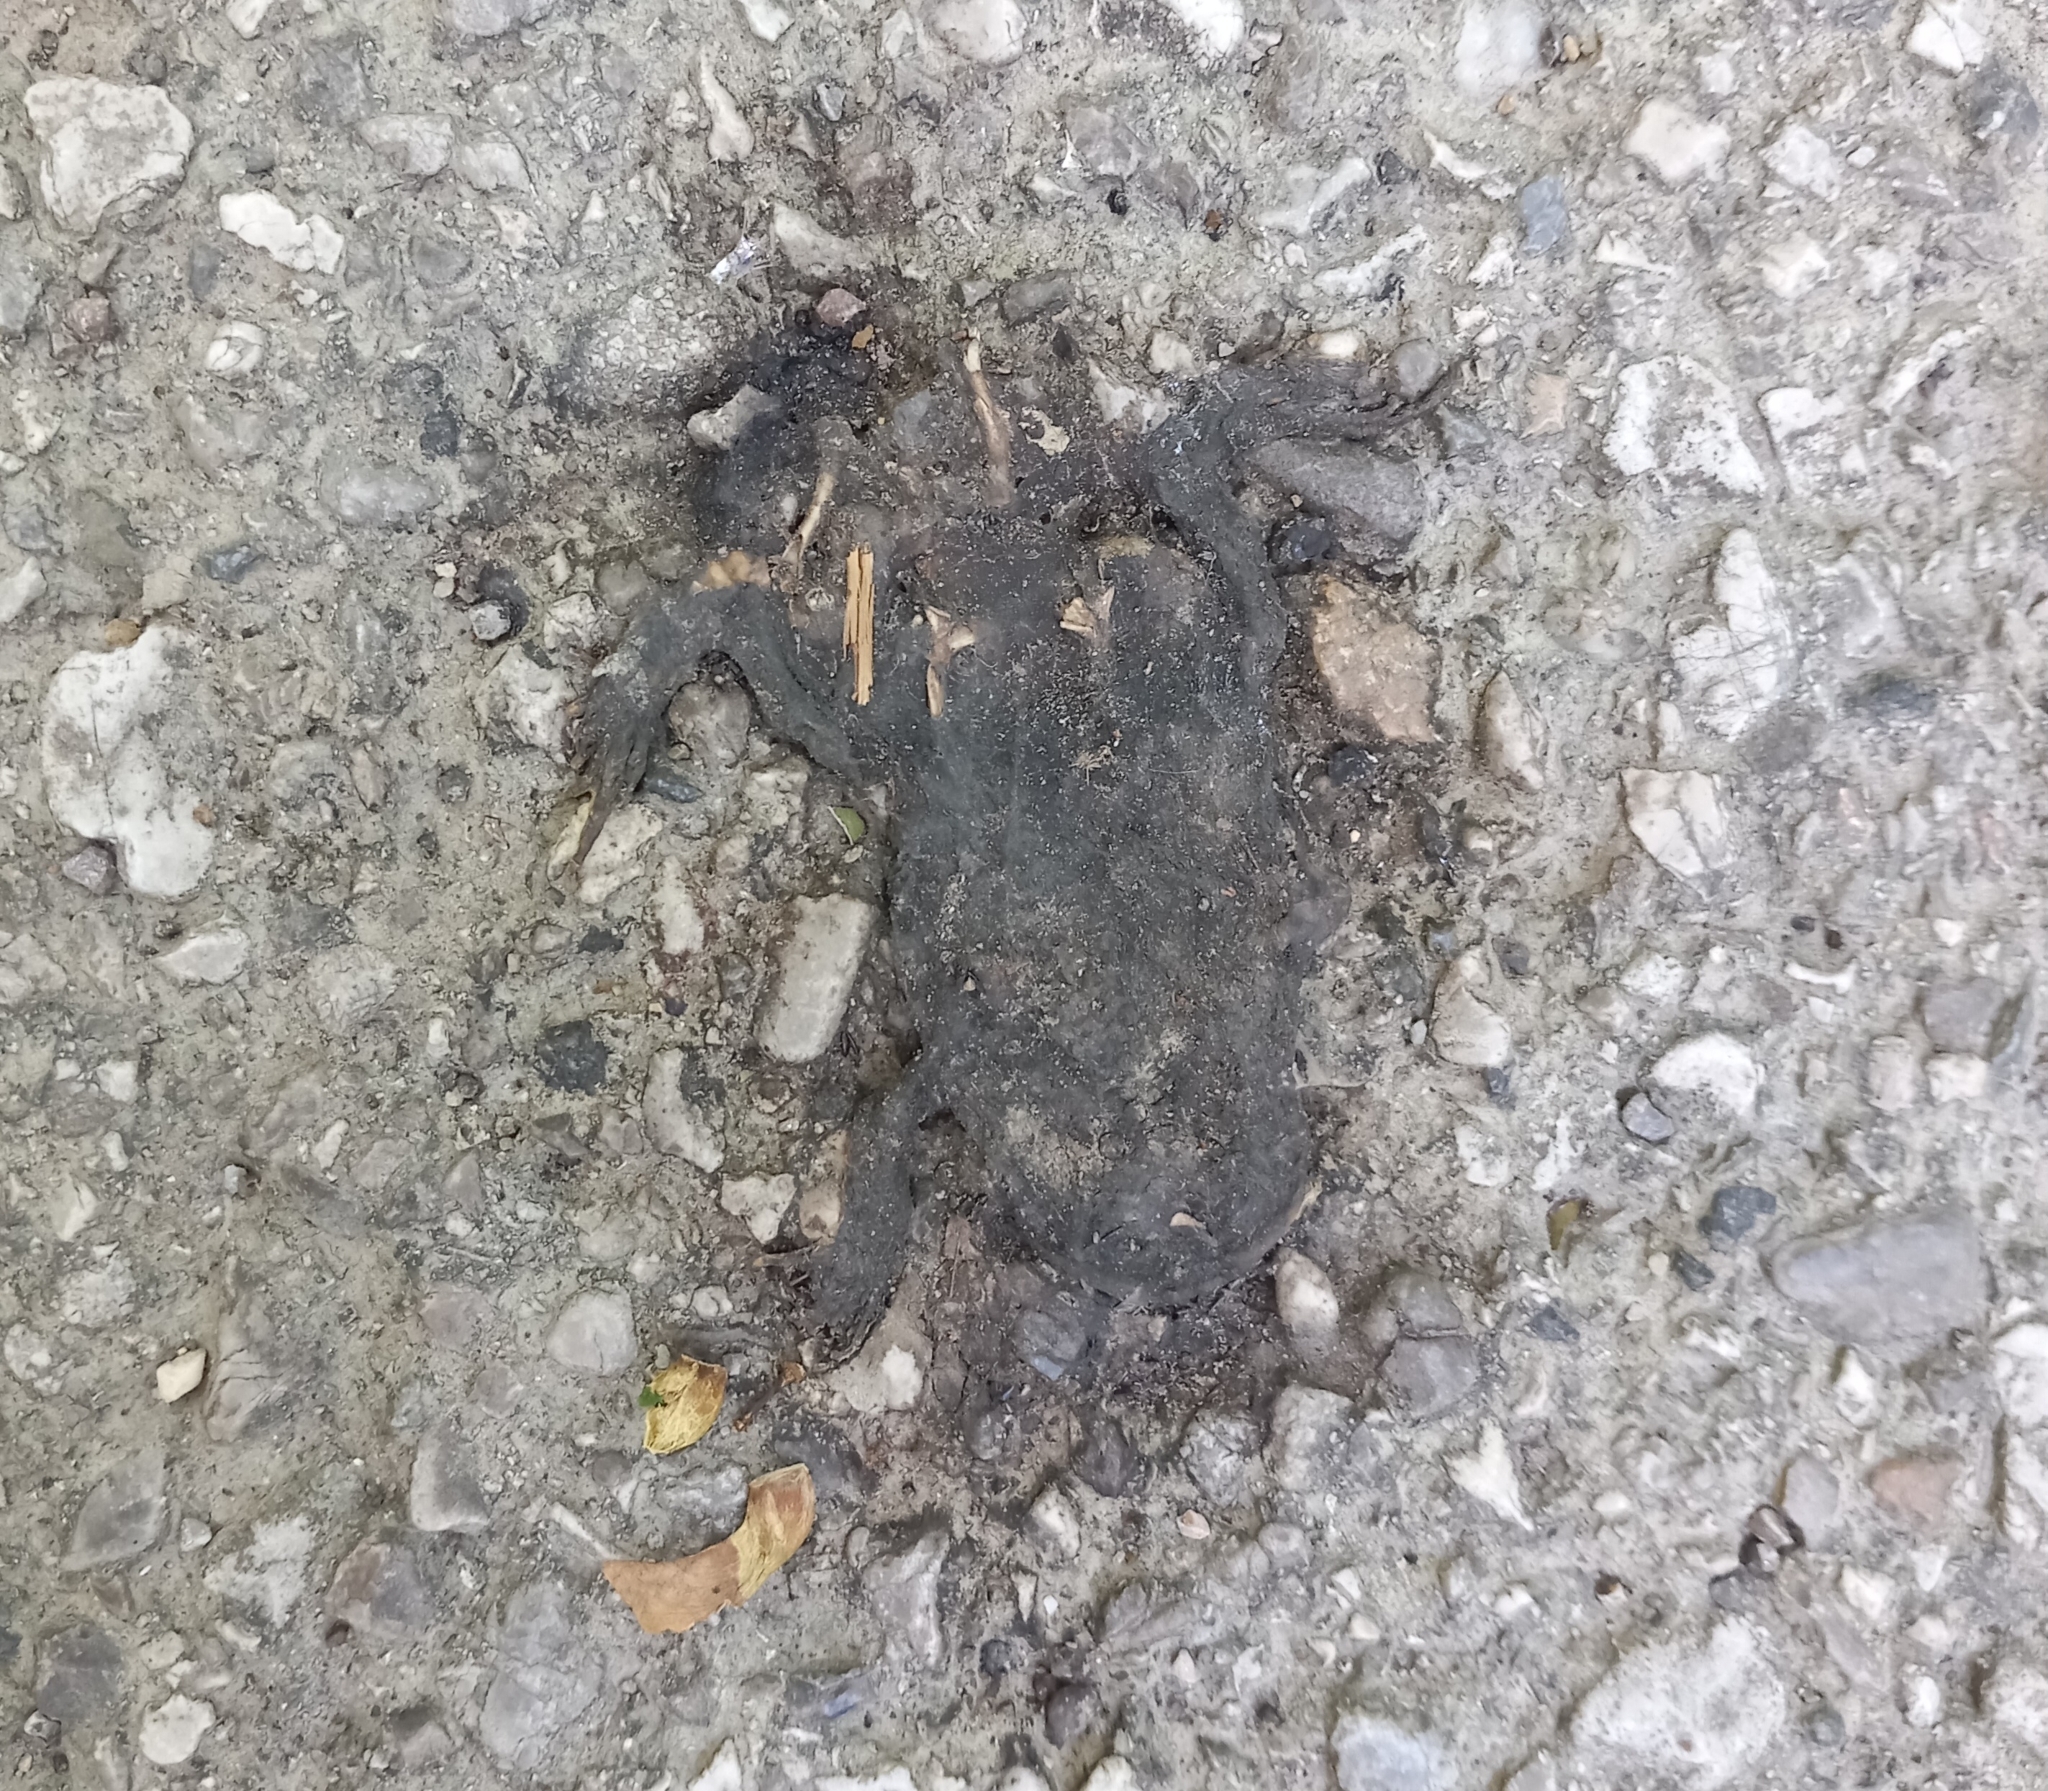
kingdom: Animalia
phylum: Chordata
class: Amphibia
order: Anura
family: Bufonidae
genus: Bufo
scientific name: Bufo bufo
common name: Common toad
